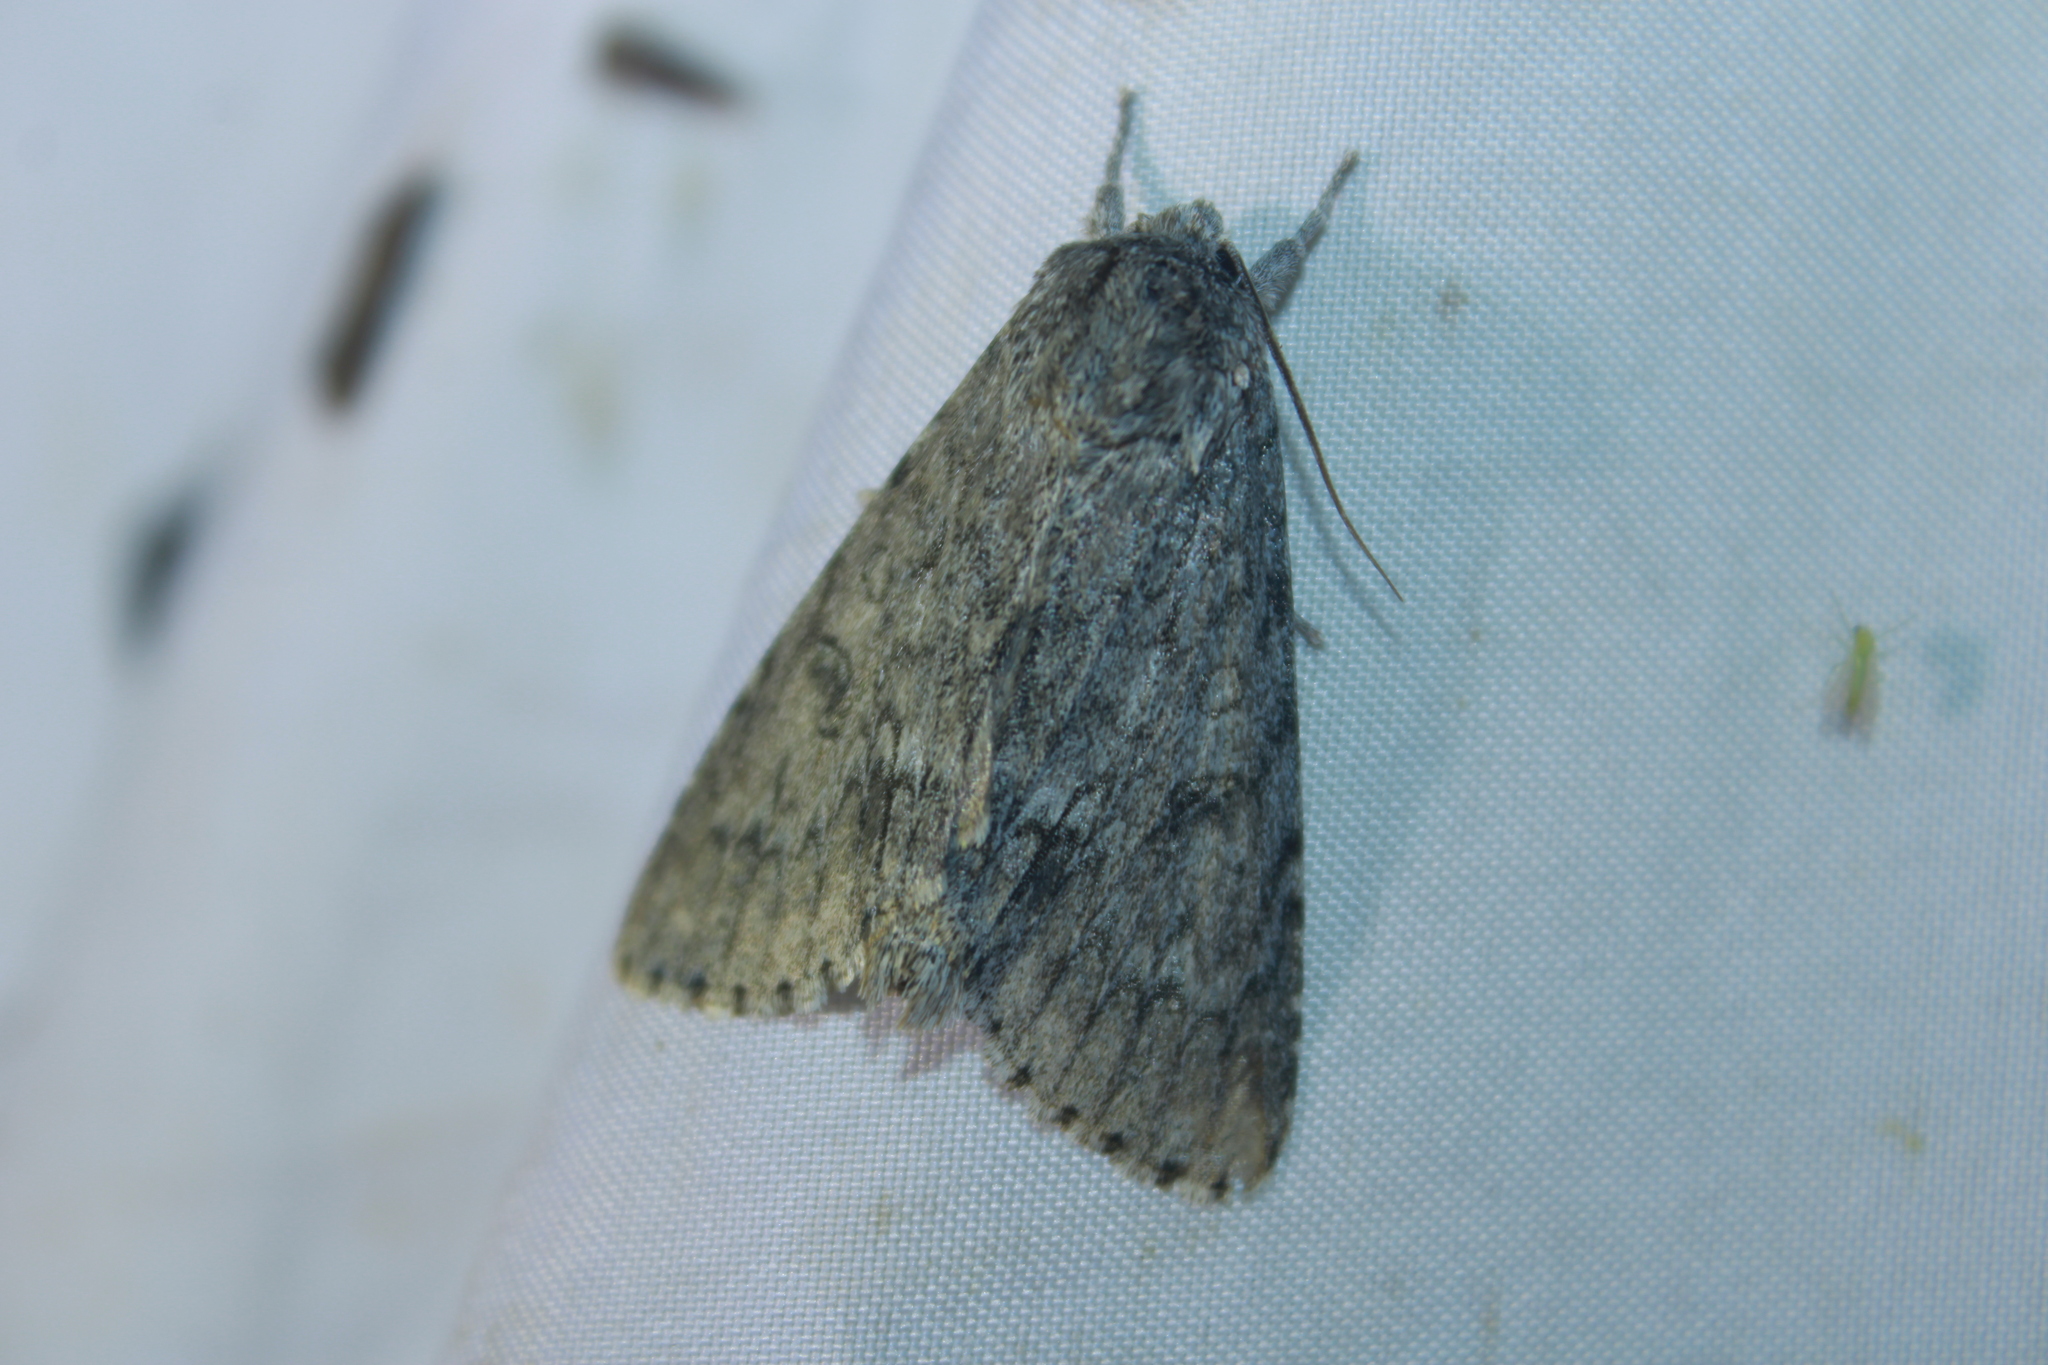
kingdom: Animalia
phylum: Arthropoda
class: Insecta
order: Lepidoptera
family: Noctuidae
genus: Acronicta
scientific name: Acronicta americana
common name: American dagger
